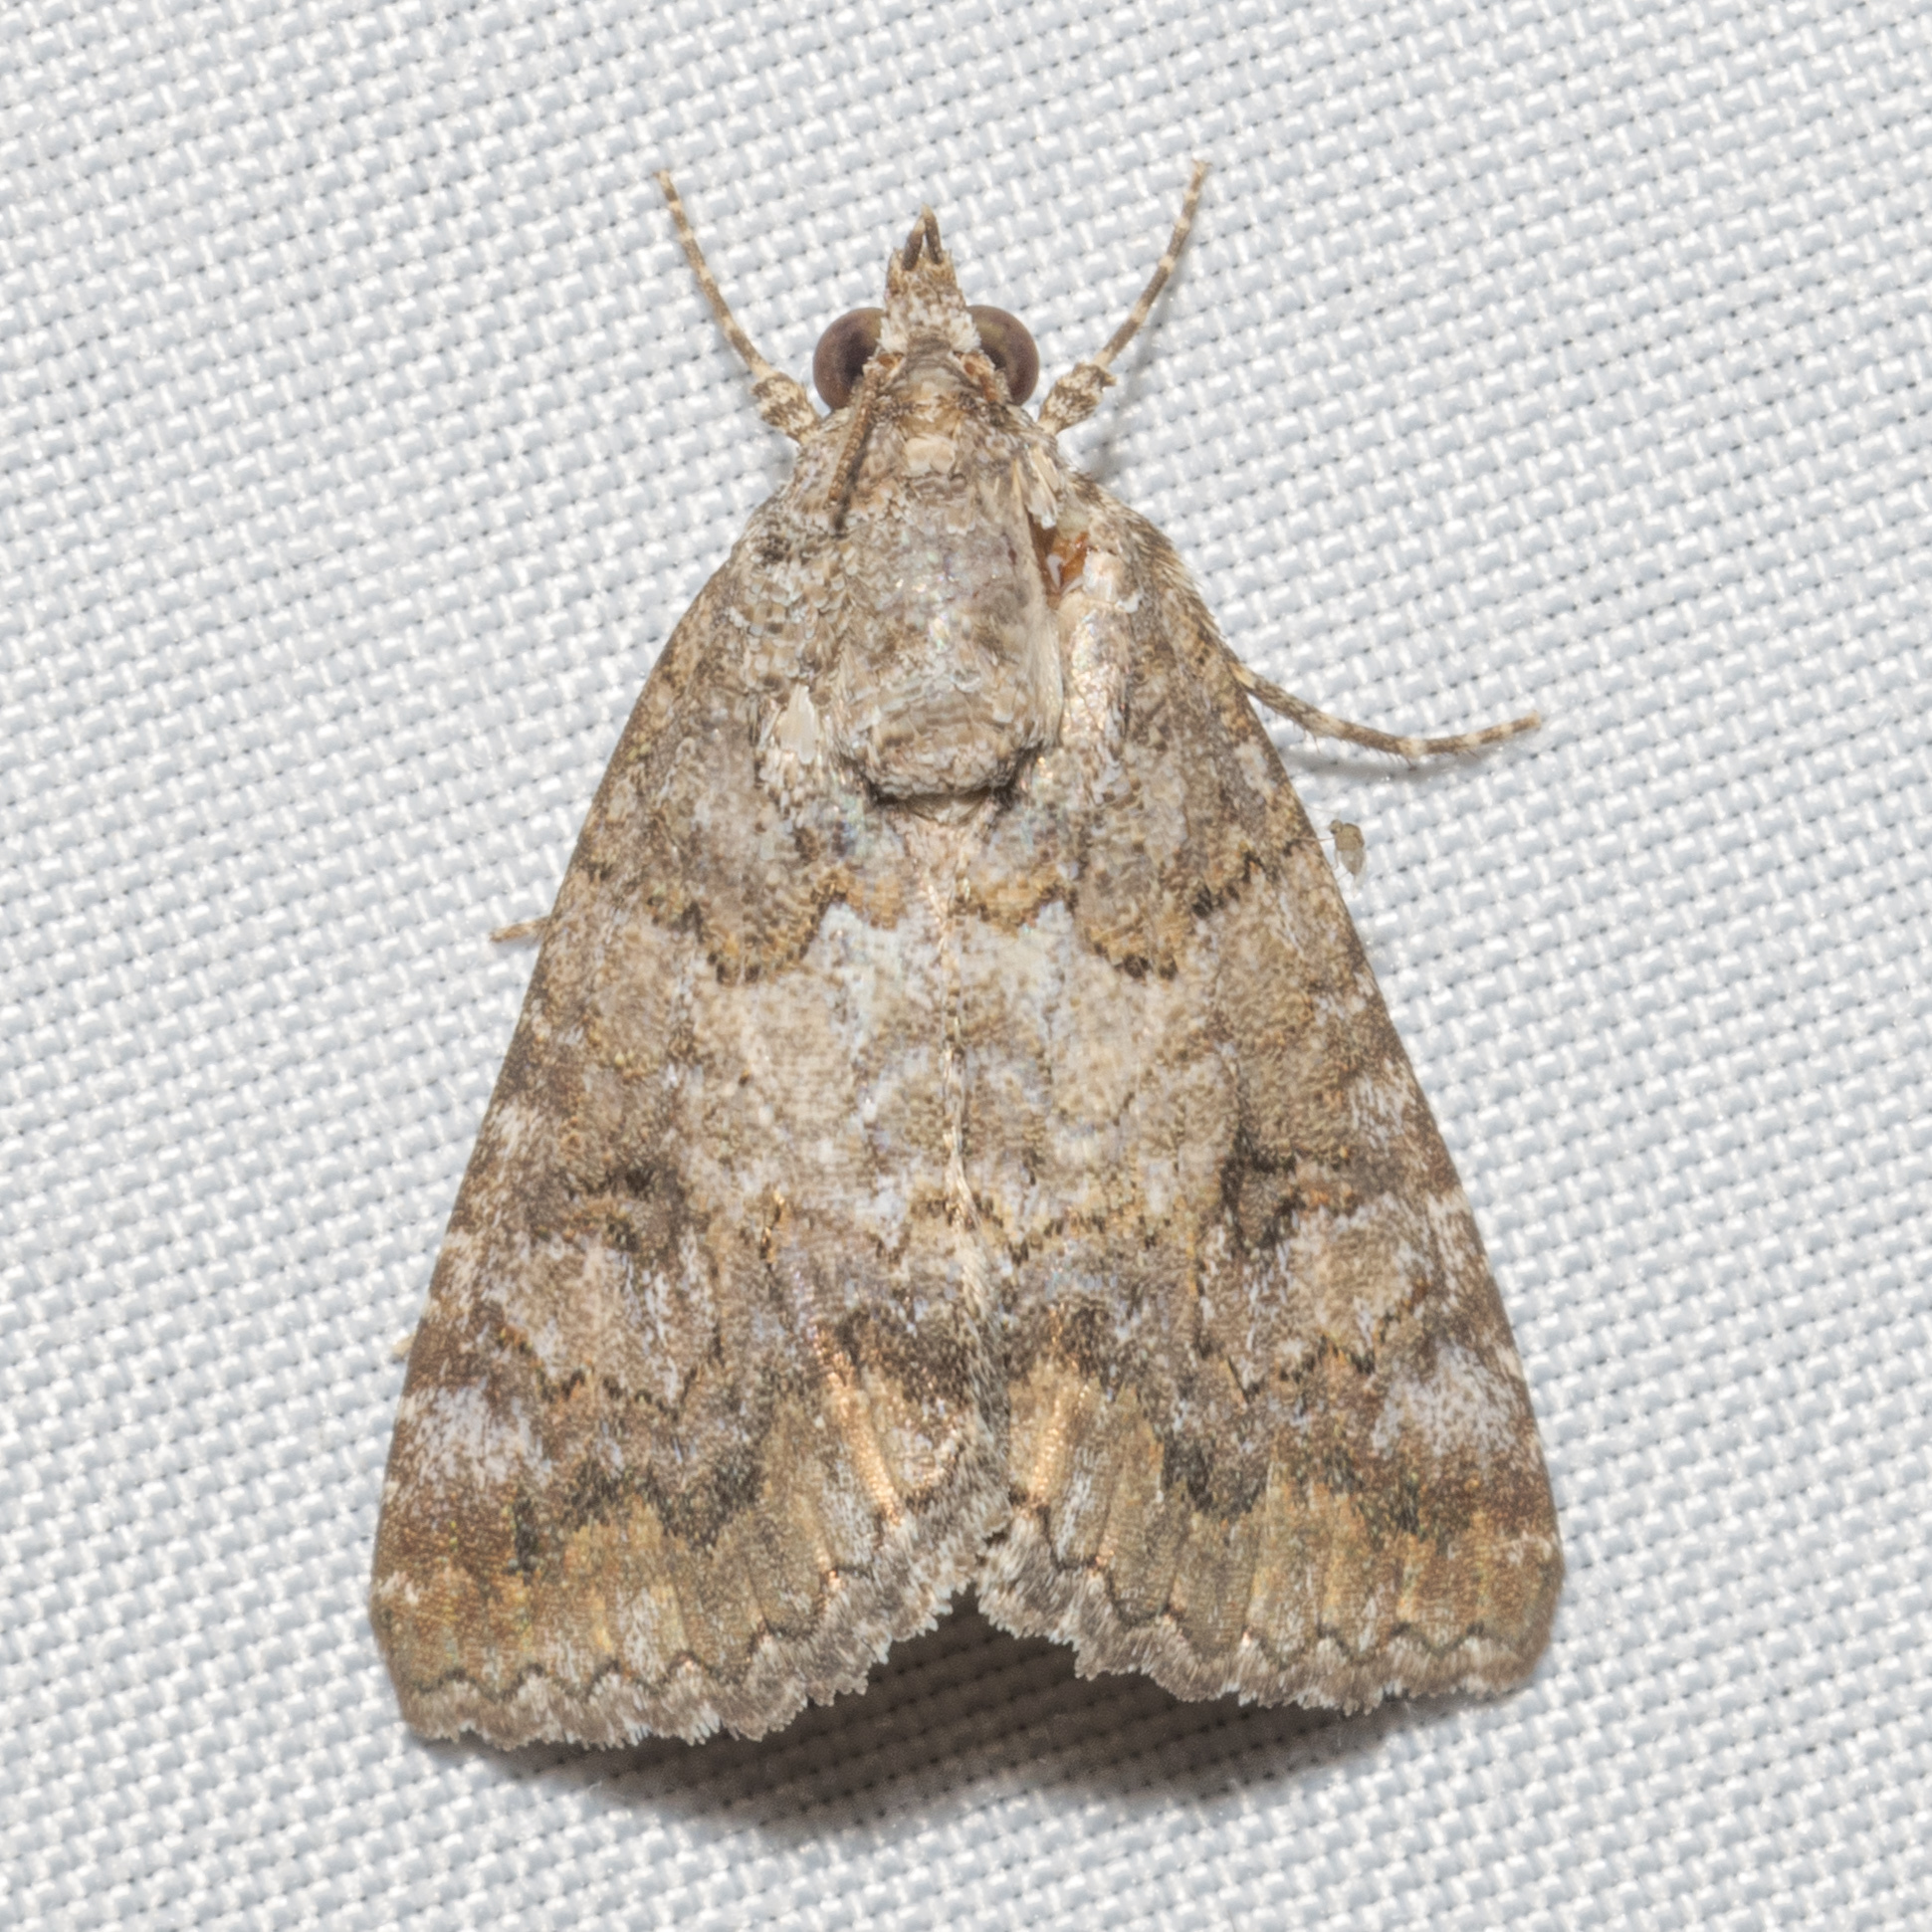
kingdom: Animalia
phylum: Arthropoda
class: Insecta
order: Lepidoptera
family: Erebidae
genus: Eubolina
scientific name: Eubolina impartialis
